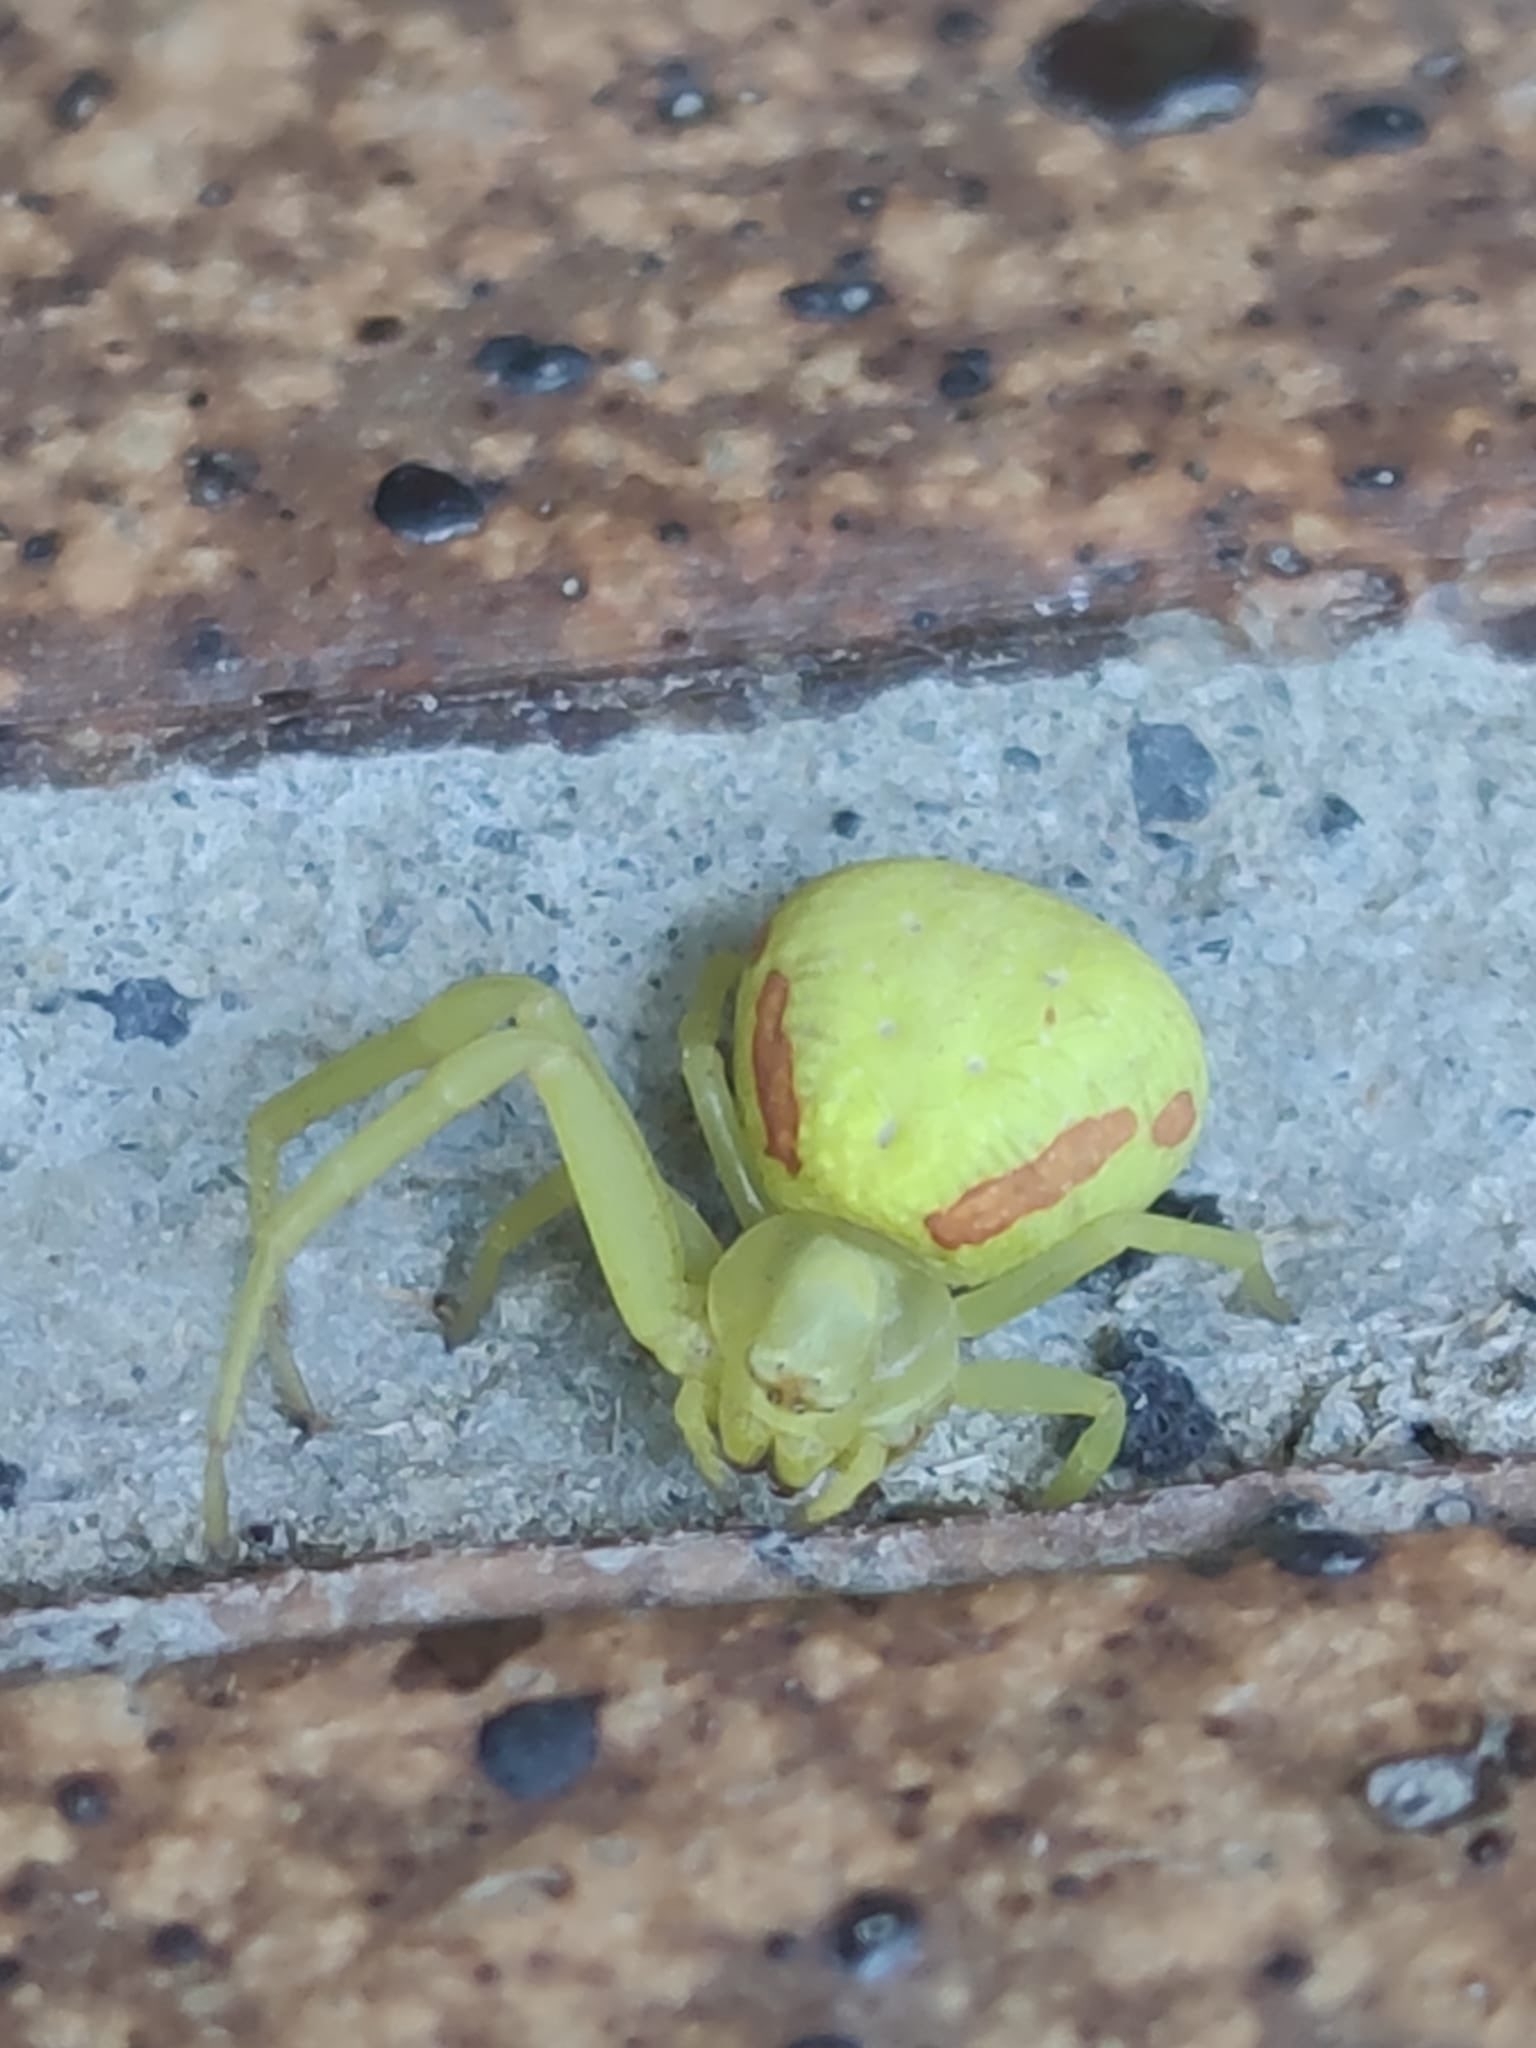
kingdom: Animalia
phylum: Arthropoda
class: Arachnida
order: Araneae
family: Thomisidae
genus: Misumena
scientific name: Misumena vatia
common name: Goldenrod crab spider
